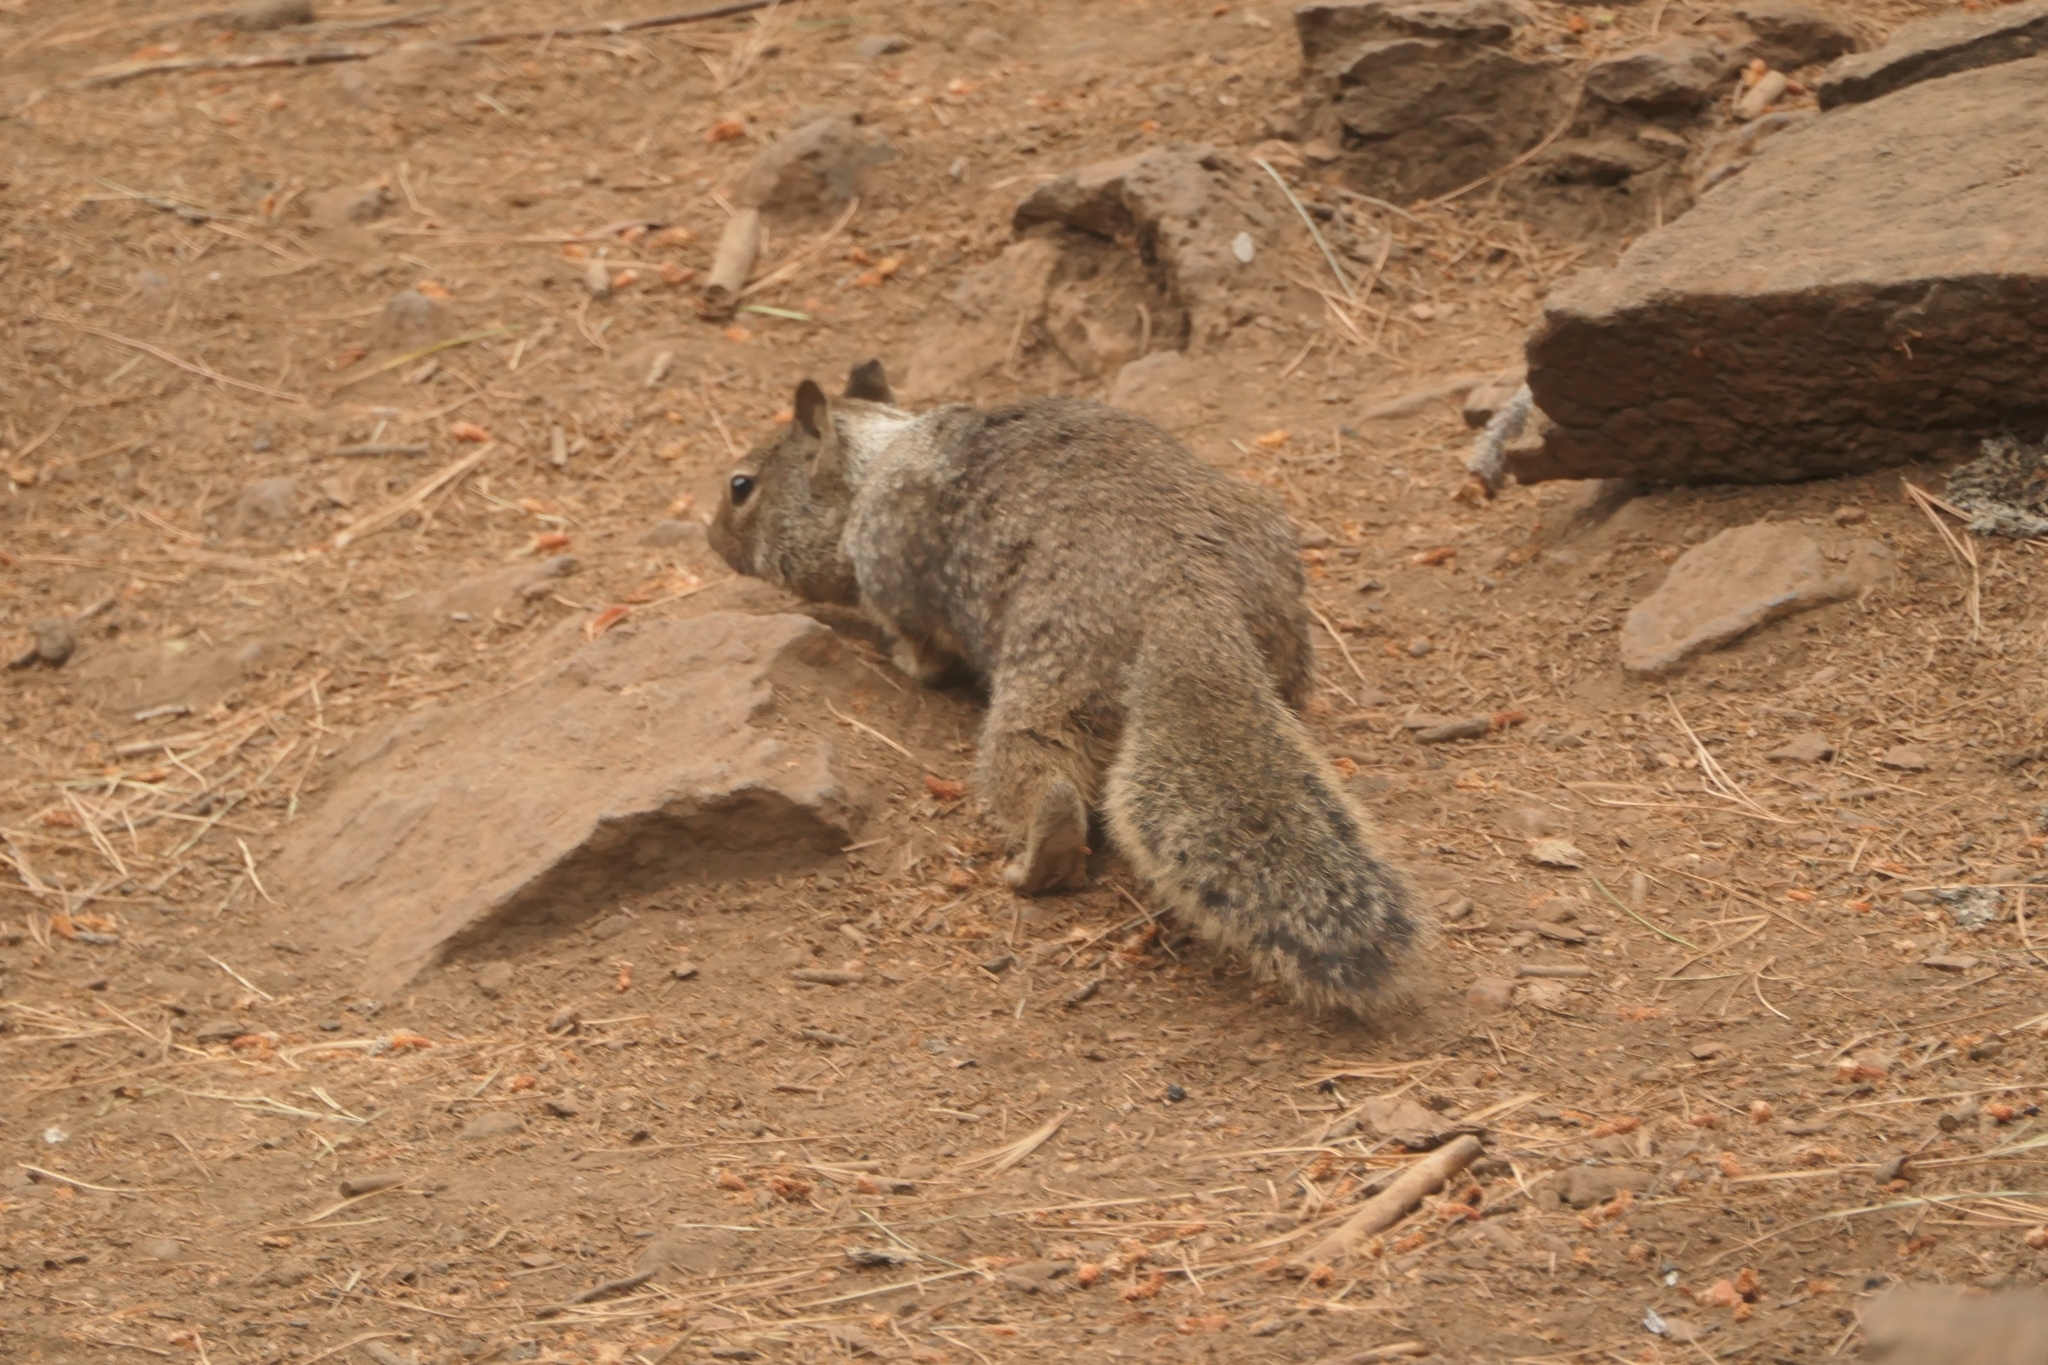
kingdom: Animalia
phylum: Chordata
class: Mammalia
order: Rodentia
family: Sciuridae
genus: Otospermophilus
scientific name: Otospermophilus beecheyi
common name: California ground squirrel
